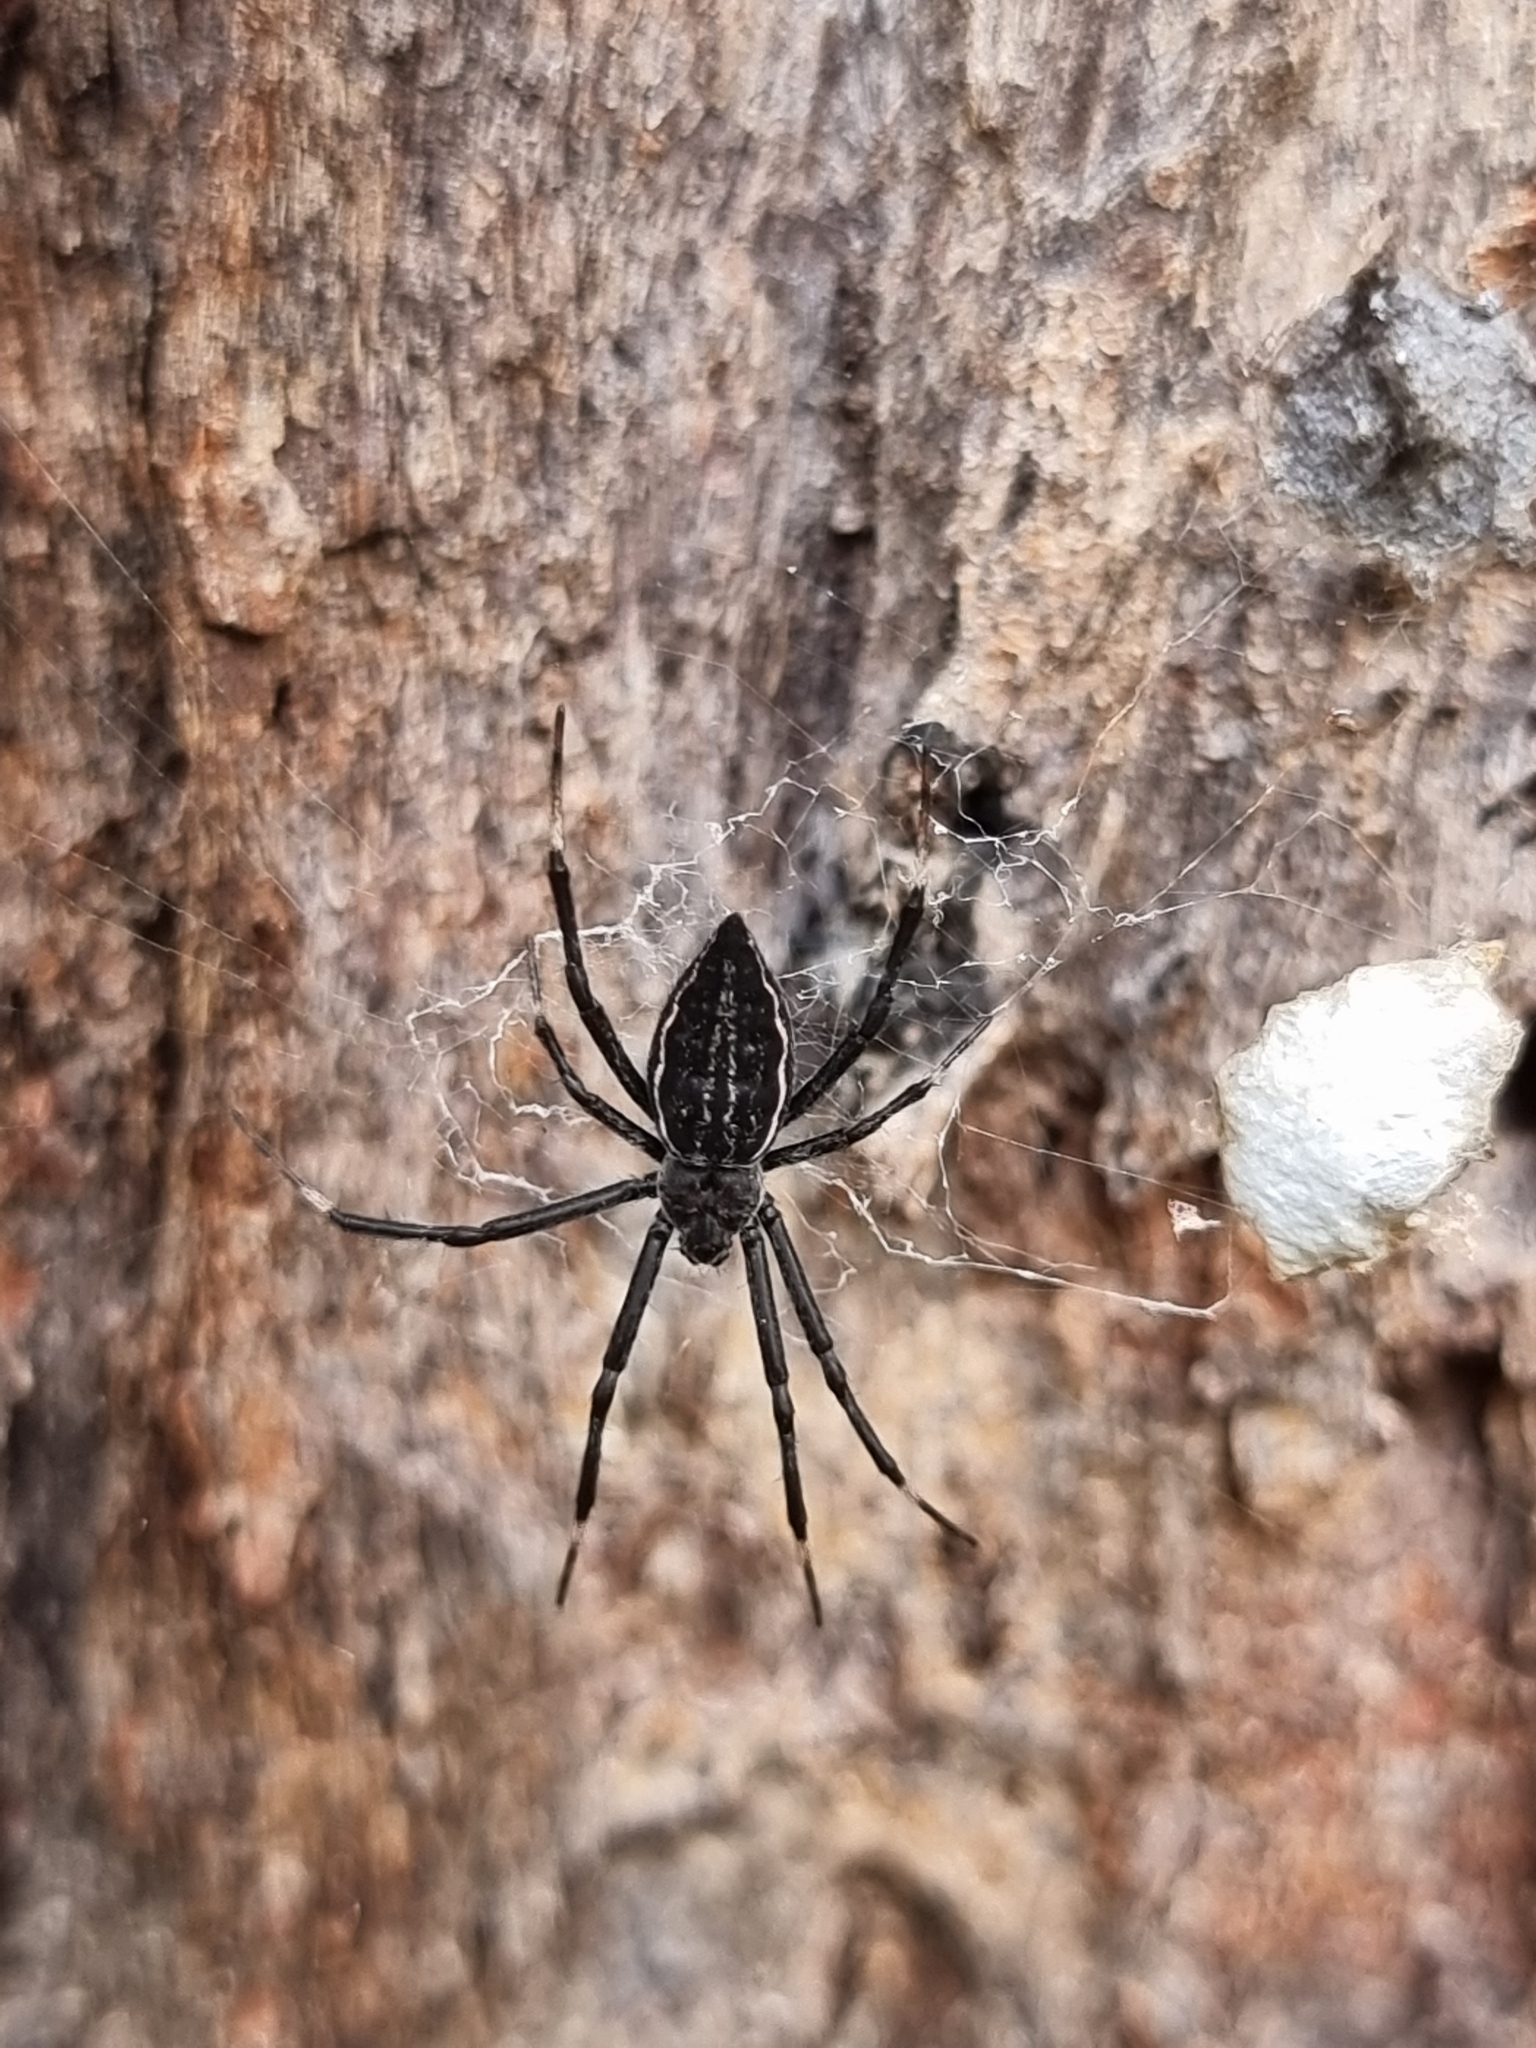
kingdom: Animalia
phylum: Arthropoda
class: Arachnida
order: Araneae
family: Araneidae
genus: Argiope
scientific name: Argiope ocyaloides
